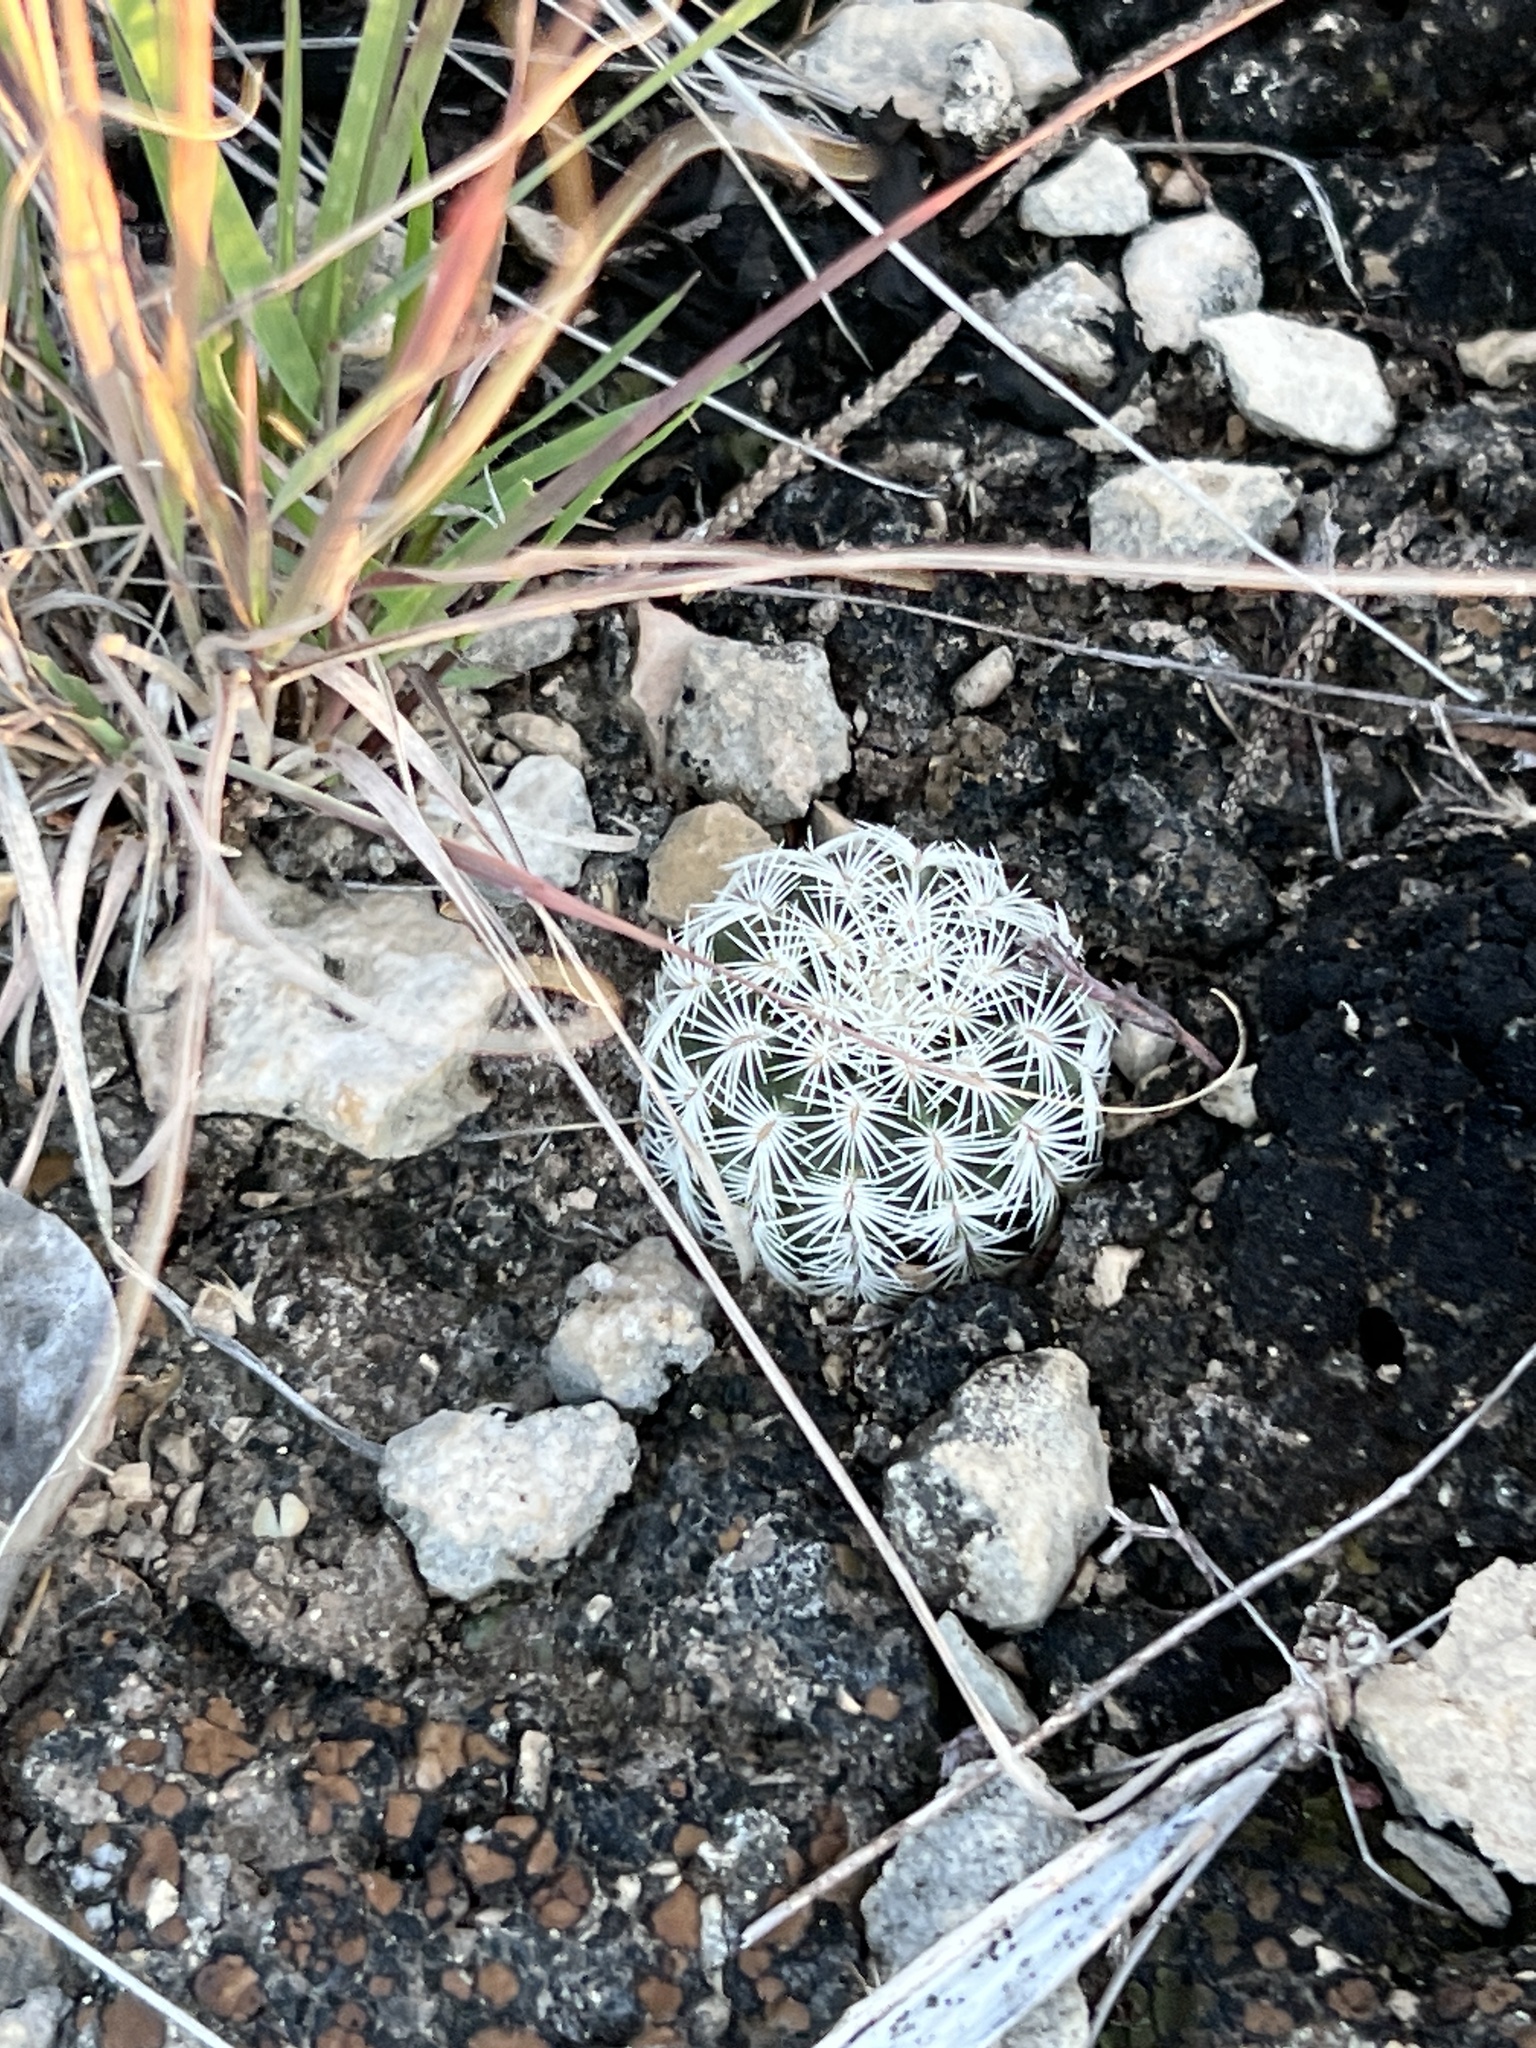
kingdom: Plantae
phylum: Tracheophyta
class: Magnoliopsida
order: Caryophyllales
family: Cactaceae
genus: Echinocereus
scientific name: Echinocereus reichenbachii
